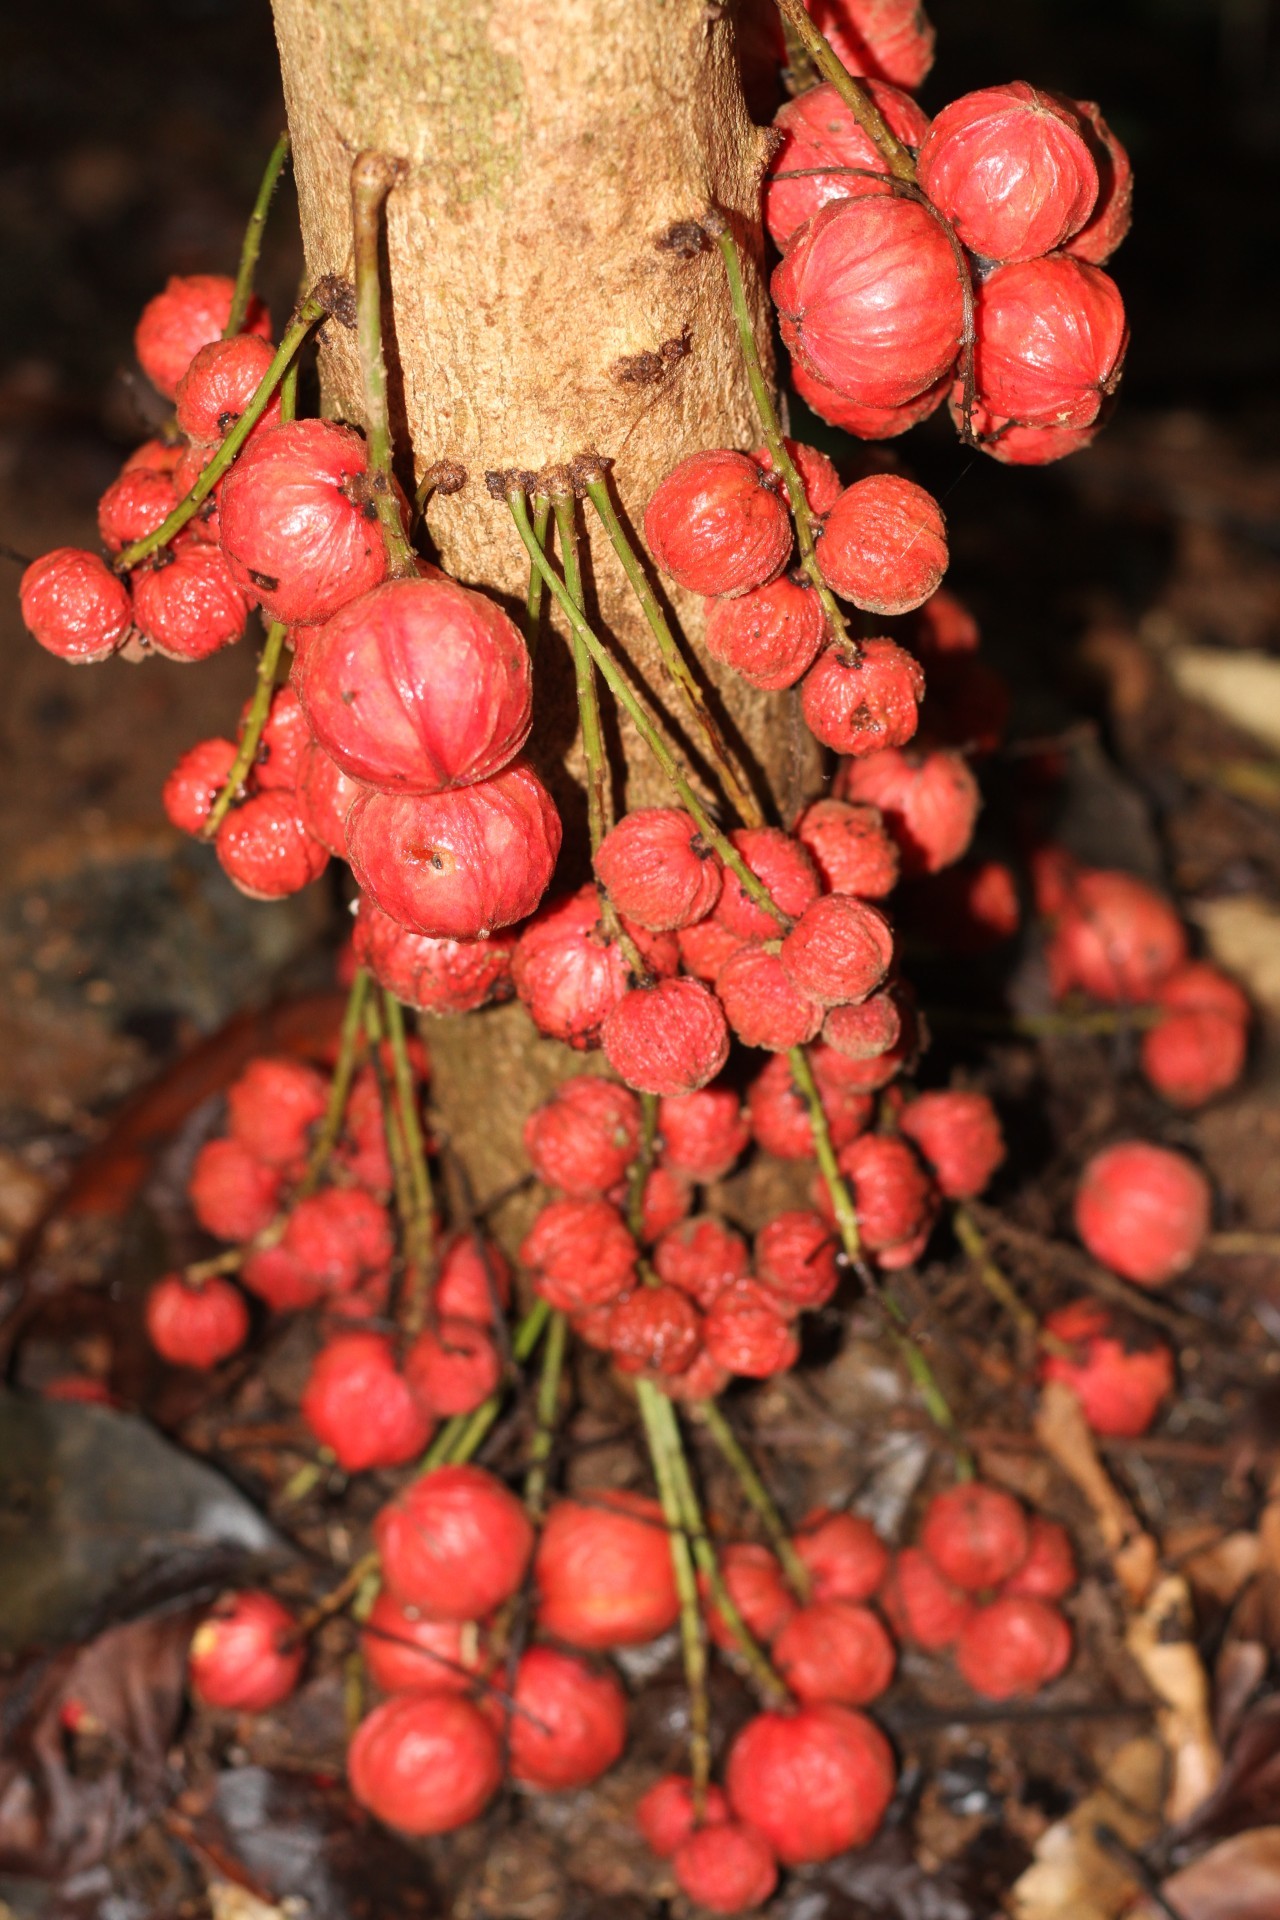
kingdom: Plantae
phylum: Tracheophyta
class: Magnoliopsida
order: Malpighiales
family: Phyllanthaceae
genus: Baccaurea
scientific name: Baccaurea courtallensis
